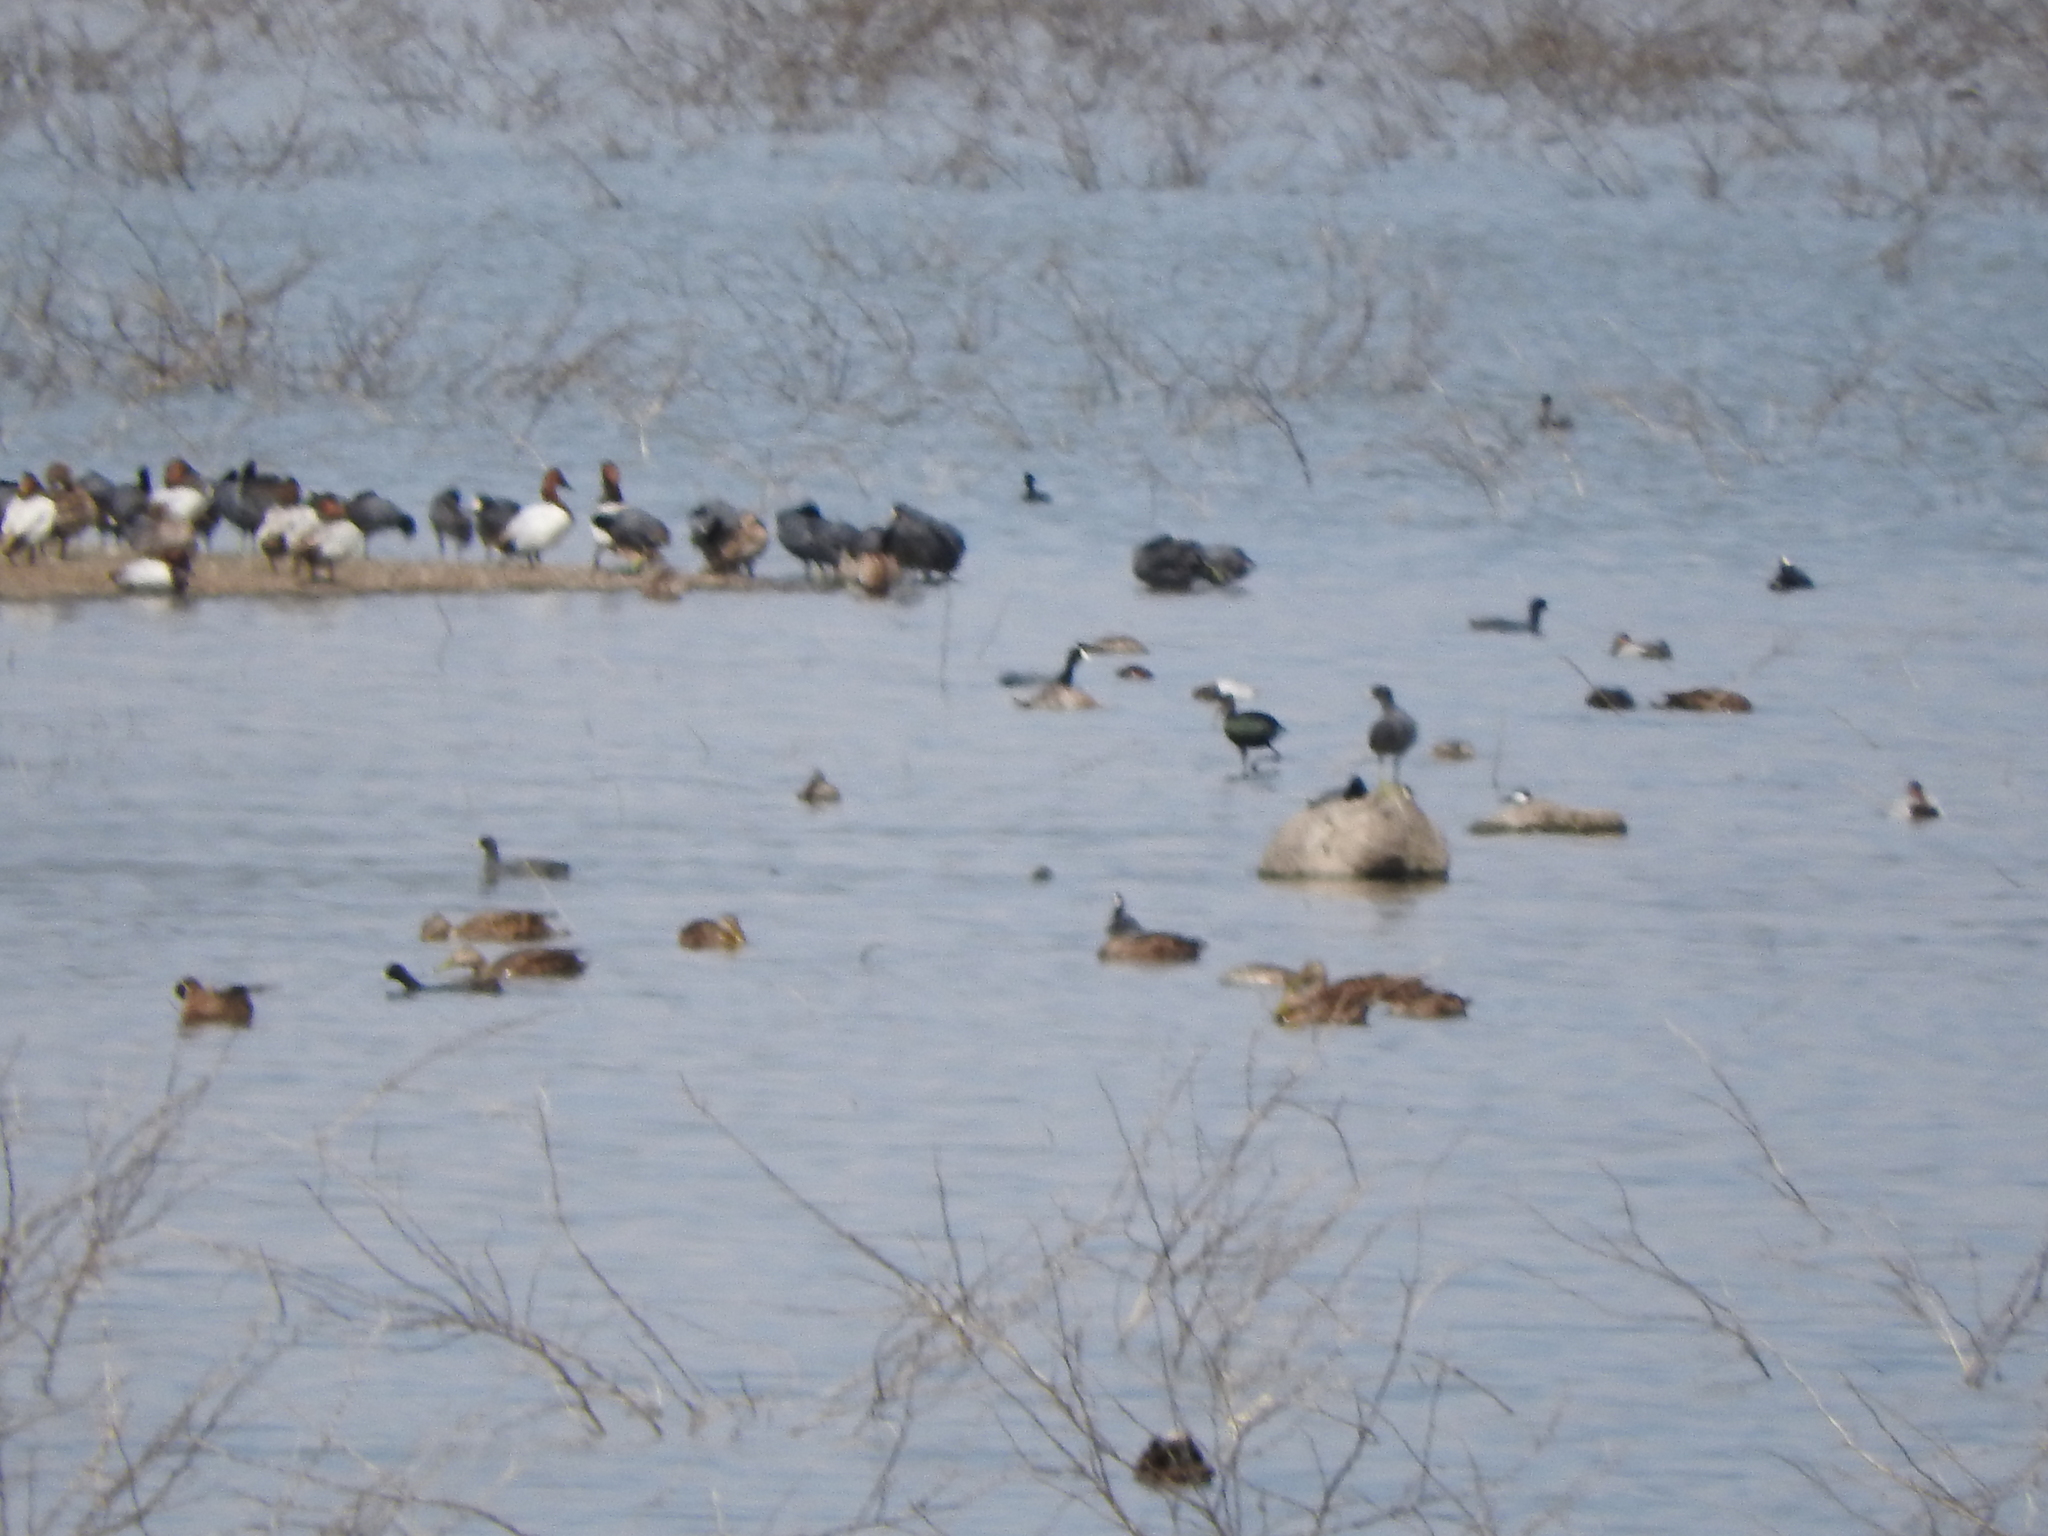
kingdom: Animalia
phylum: Chordata
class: Aves
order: Gruiformes
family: Rallidae
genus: Fulica
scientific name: Fulica americana
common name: American coot
